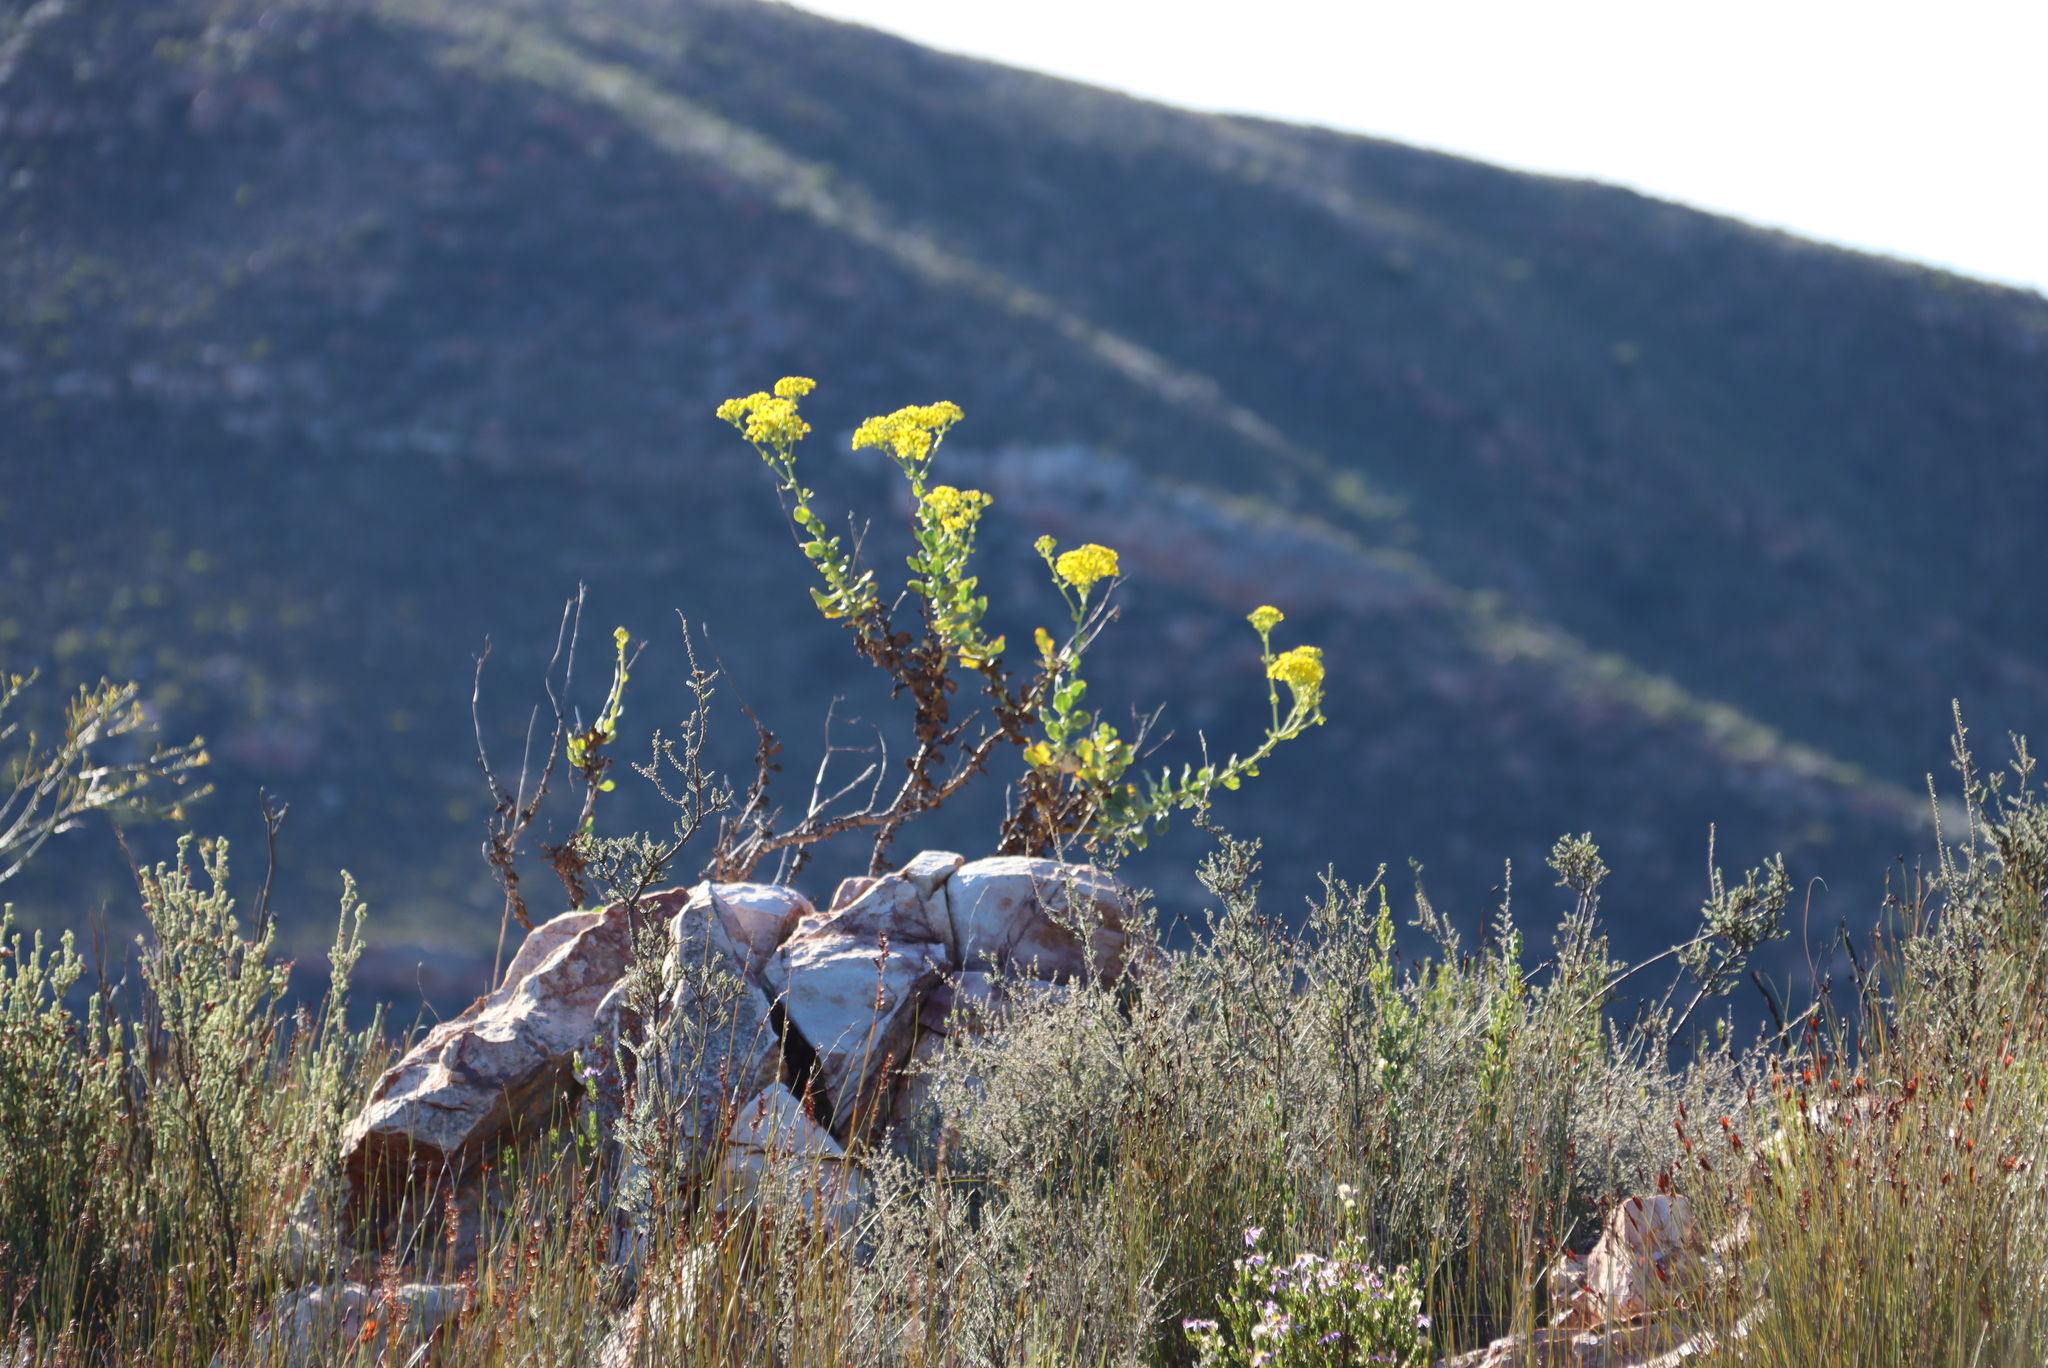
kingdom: Plantae
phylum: Tracheophyta
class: Magnoliopsida
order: Asterales
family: Asteraceae
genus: Othonna
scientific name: Othonna parviflora
